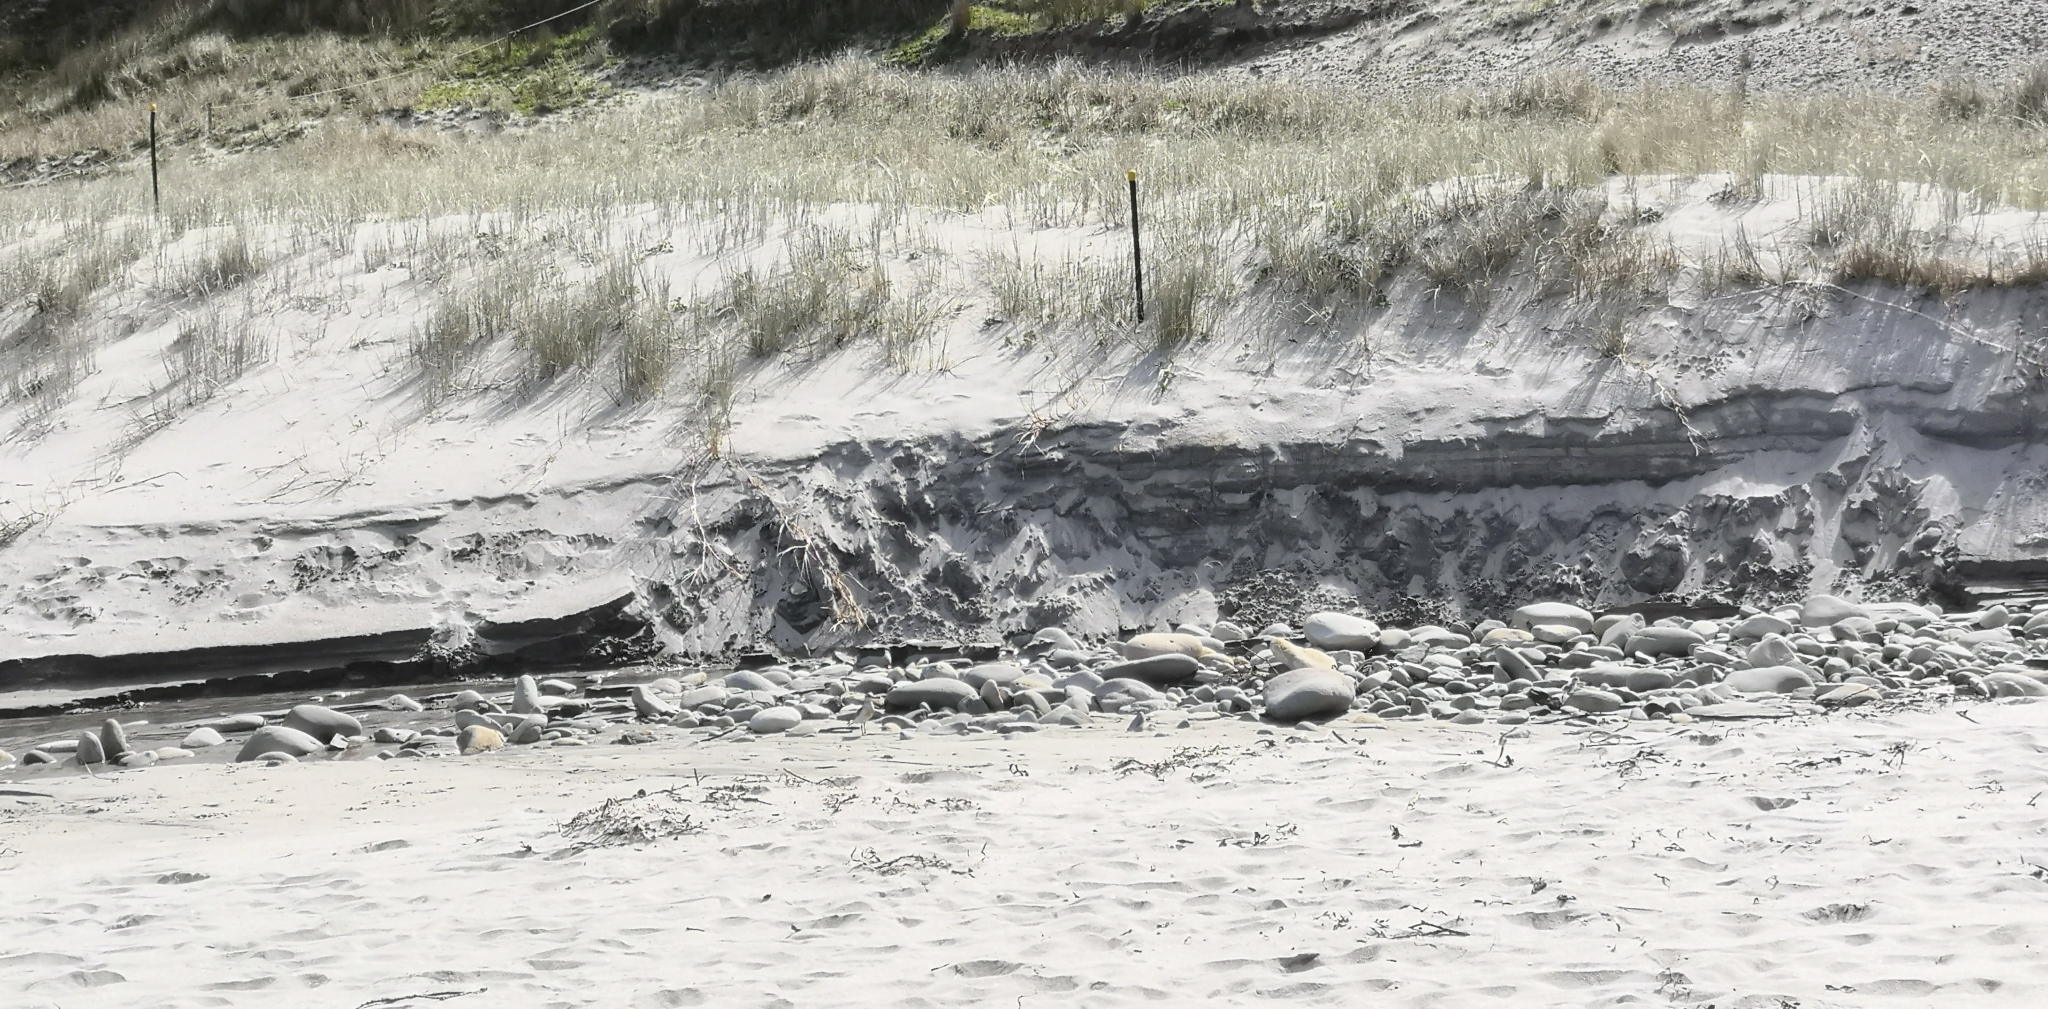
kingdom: Animalia
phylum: Chordata
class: Aves
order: Charadriiformes
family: Charadriidae
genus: Anarhynchus
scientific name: Anarhynchus
